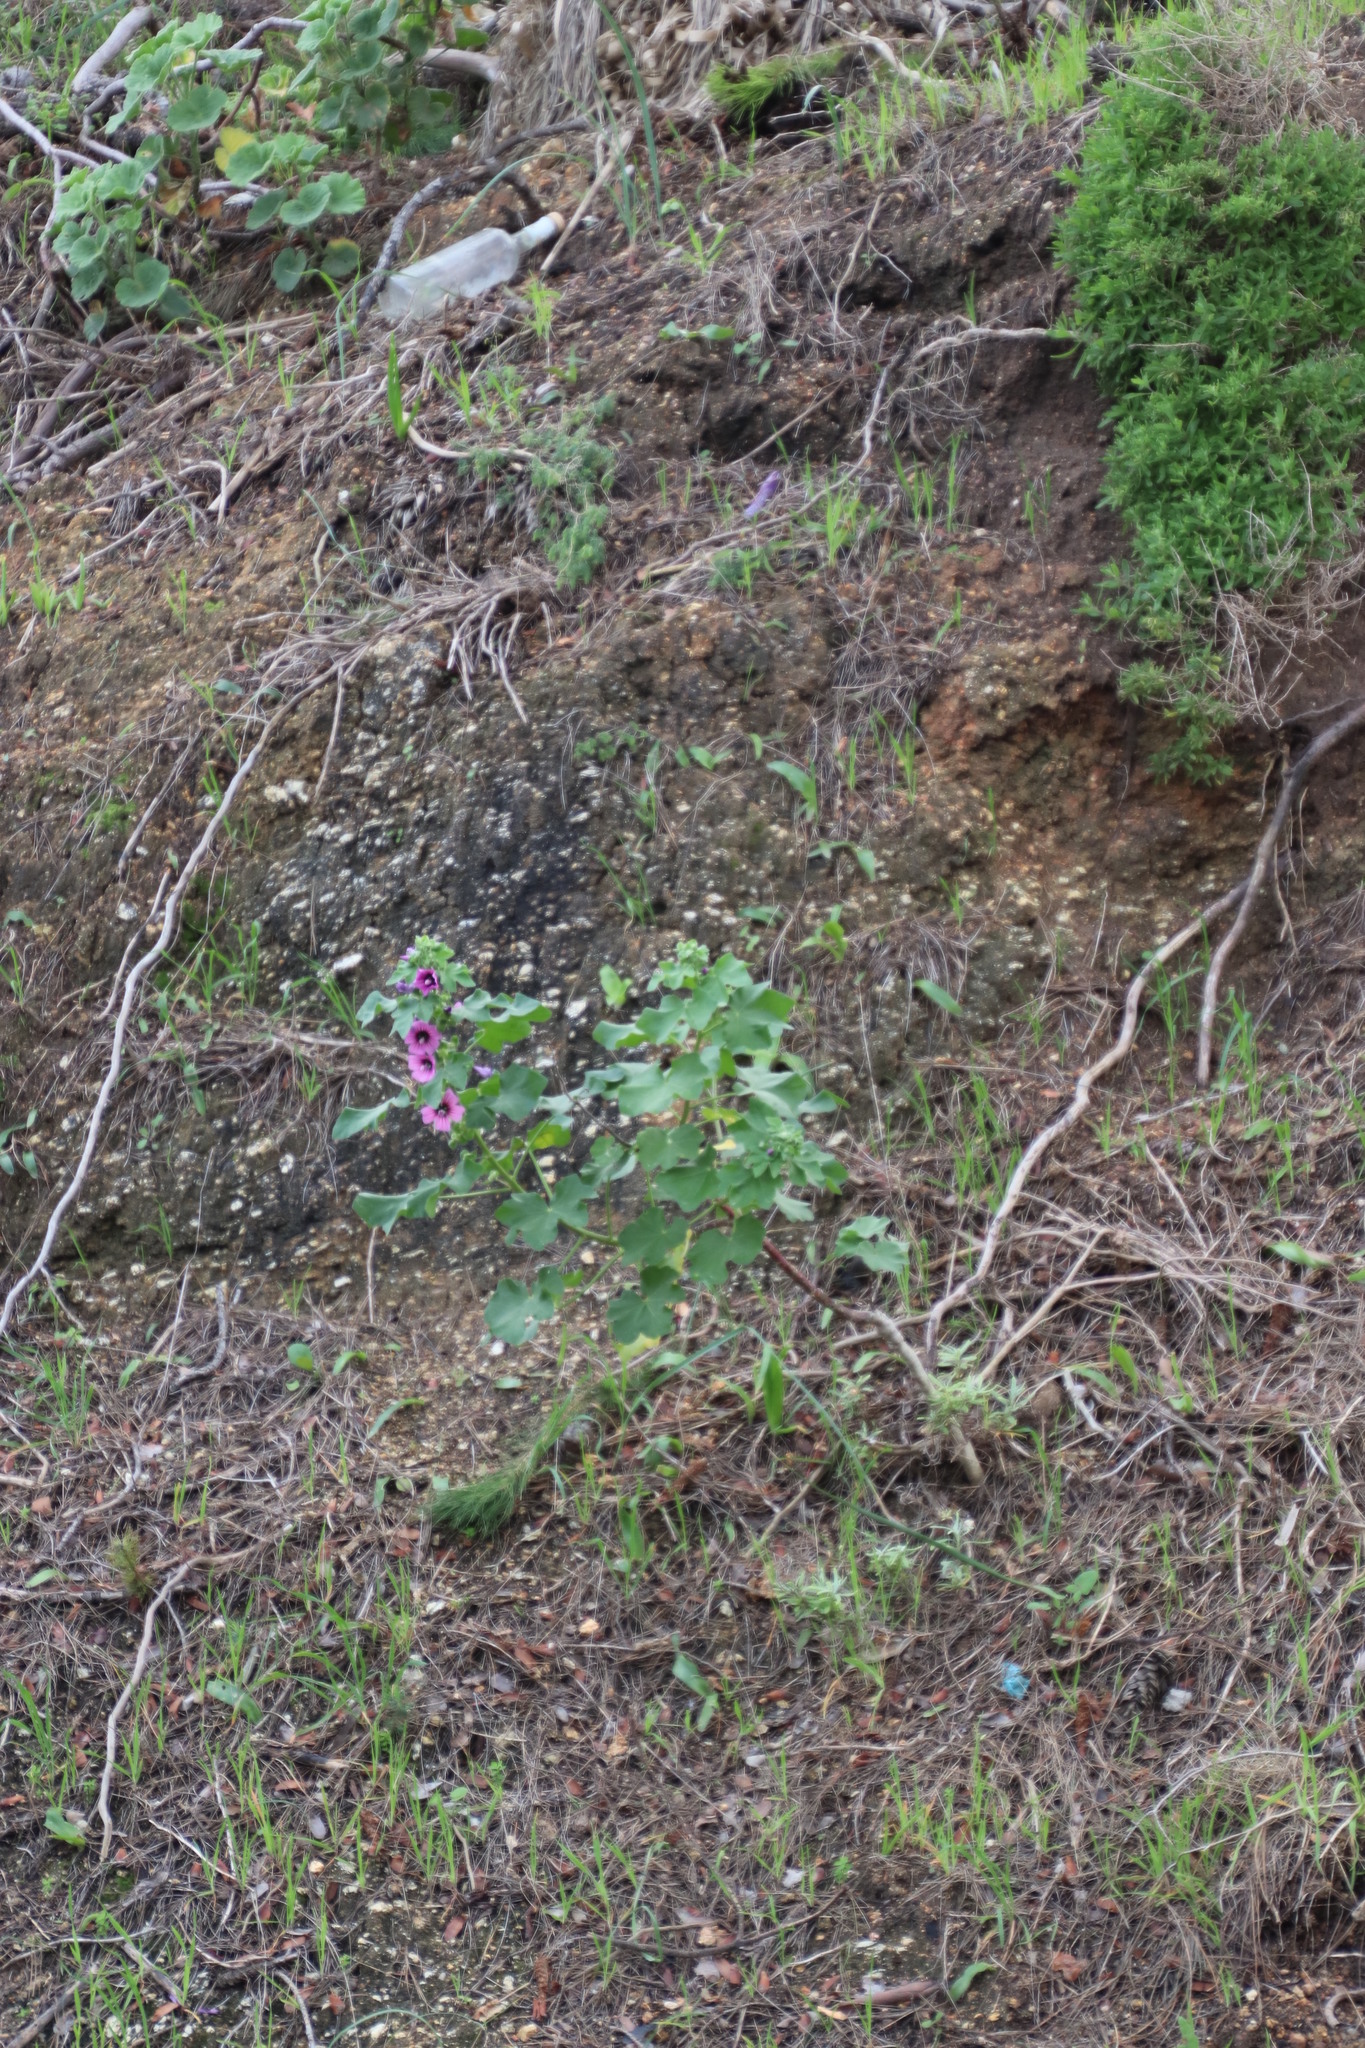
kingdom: Plantae
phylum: Tracheophyta
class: Magnoliopsida
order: Malvales
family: Malvaceae
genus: Malva
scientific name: Malva arborea
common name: Tree mallow
